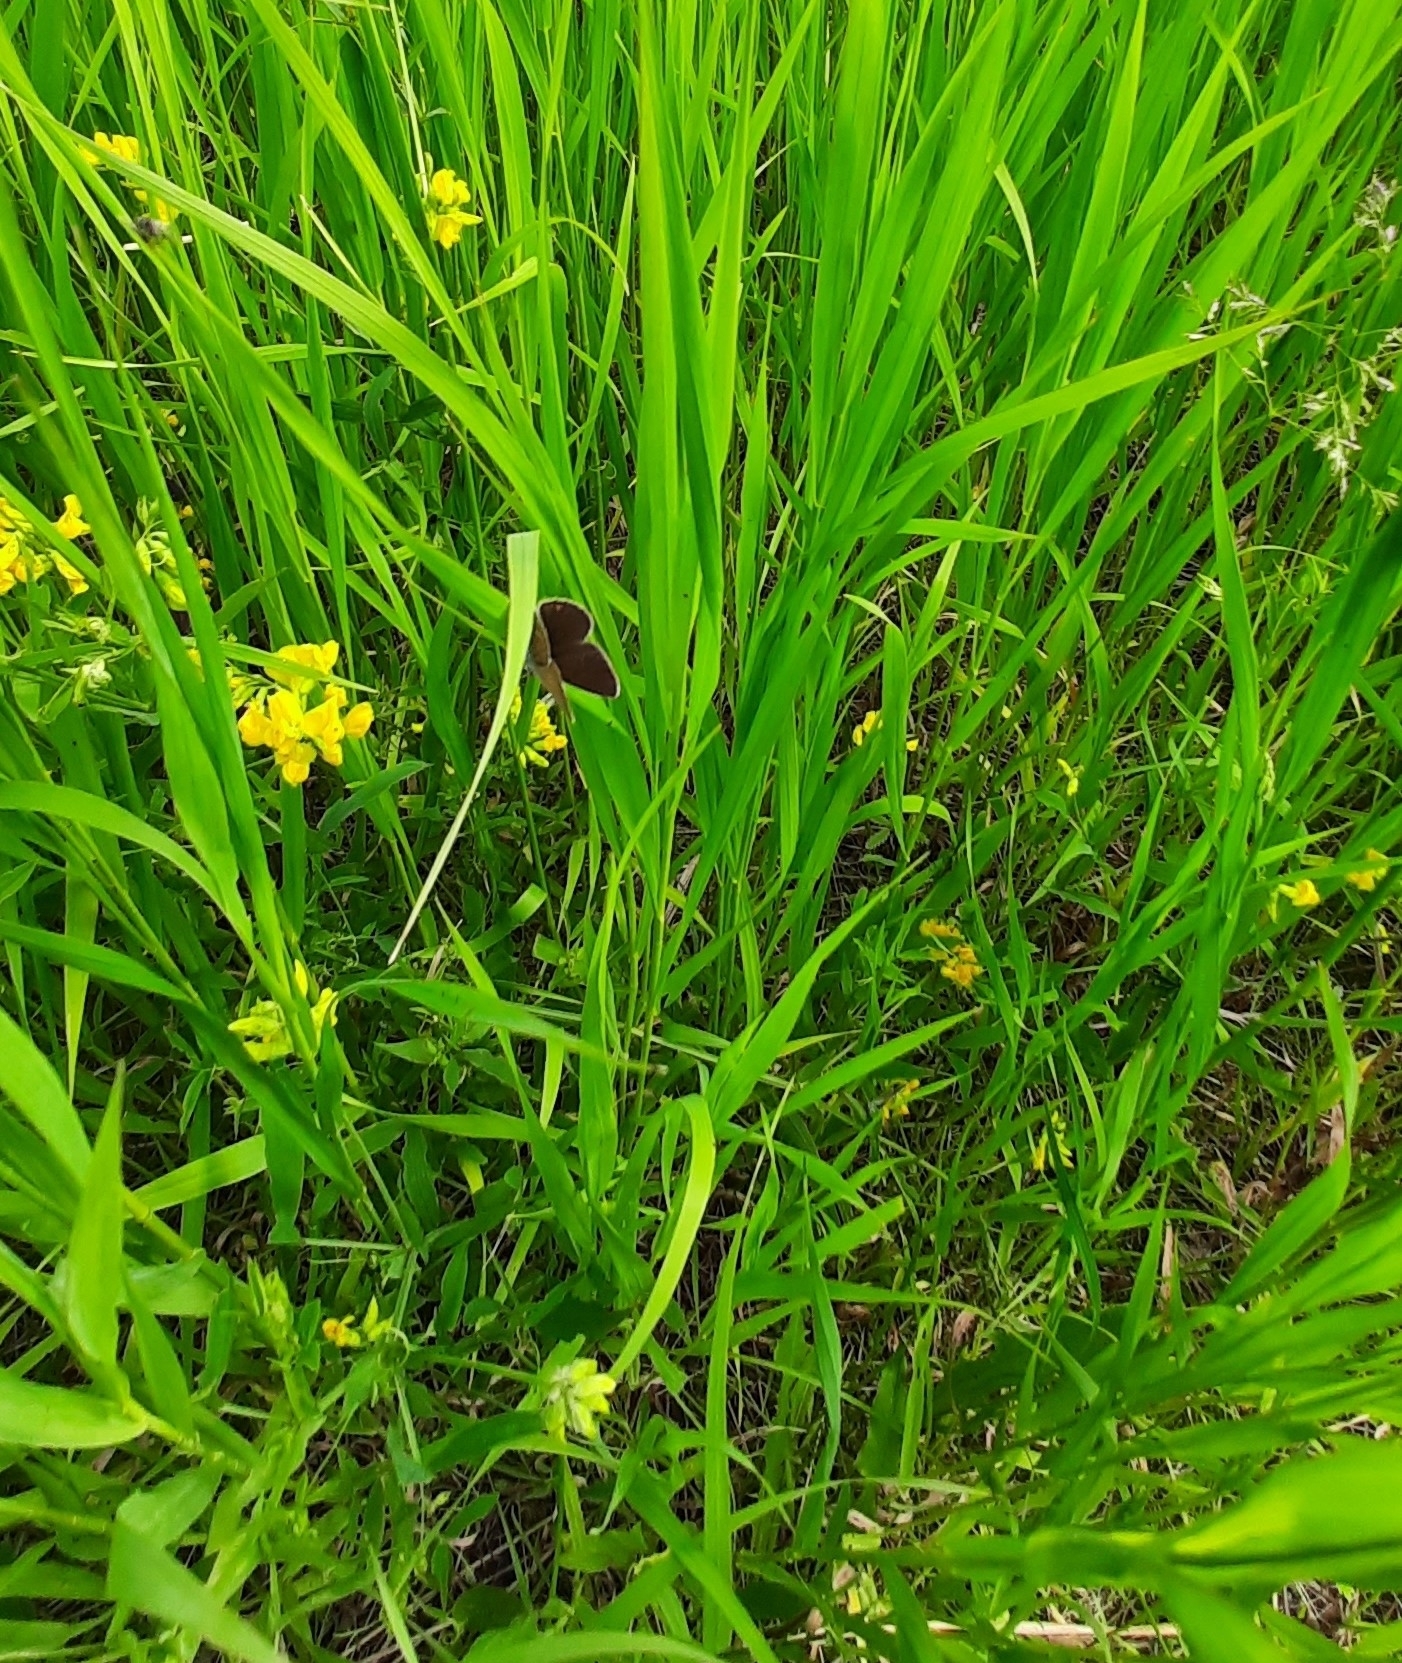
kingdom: Animalia
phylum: Arthropoda
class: Insecta
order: Lepidoptera
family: Lycaenidae
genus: Cyaniris
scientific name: Cyaniris semiargus
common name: Mazarine blue
